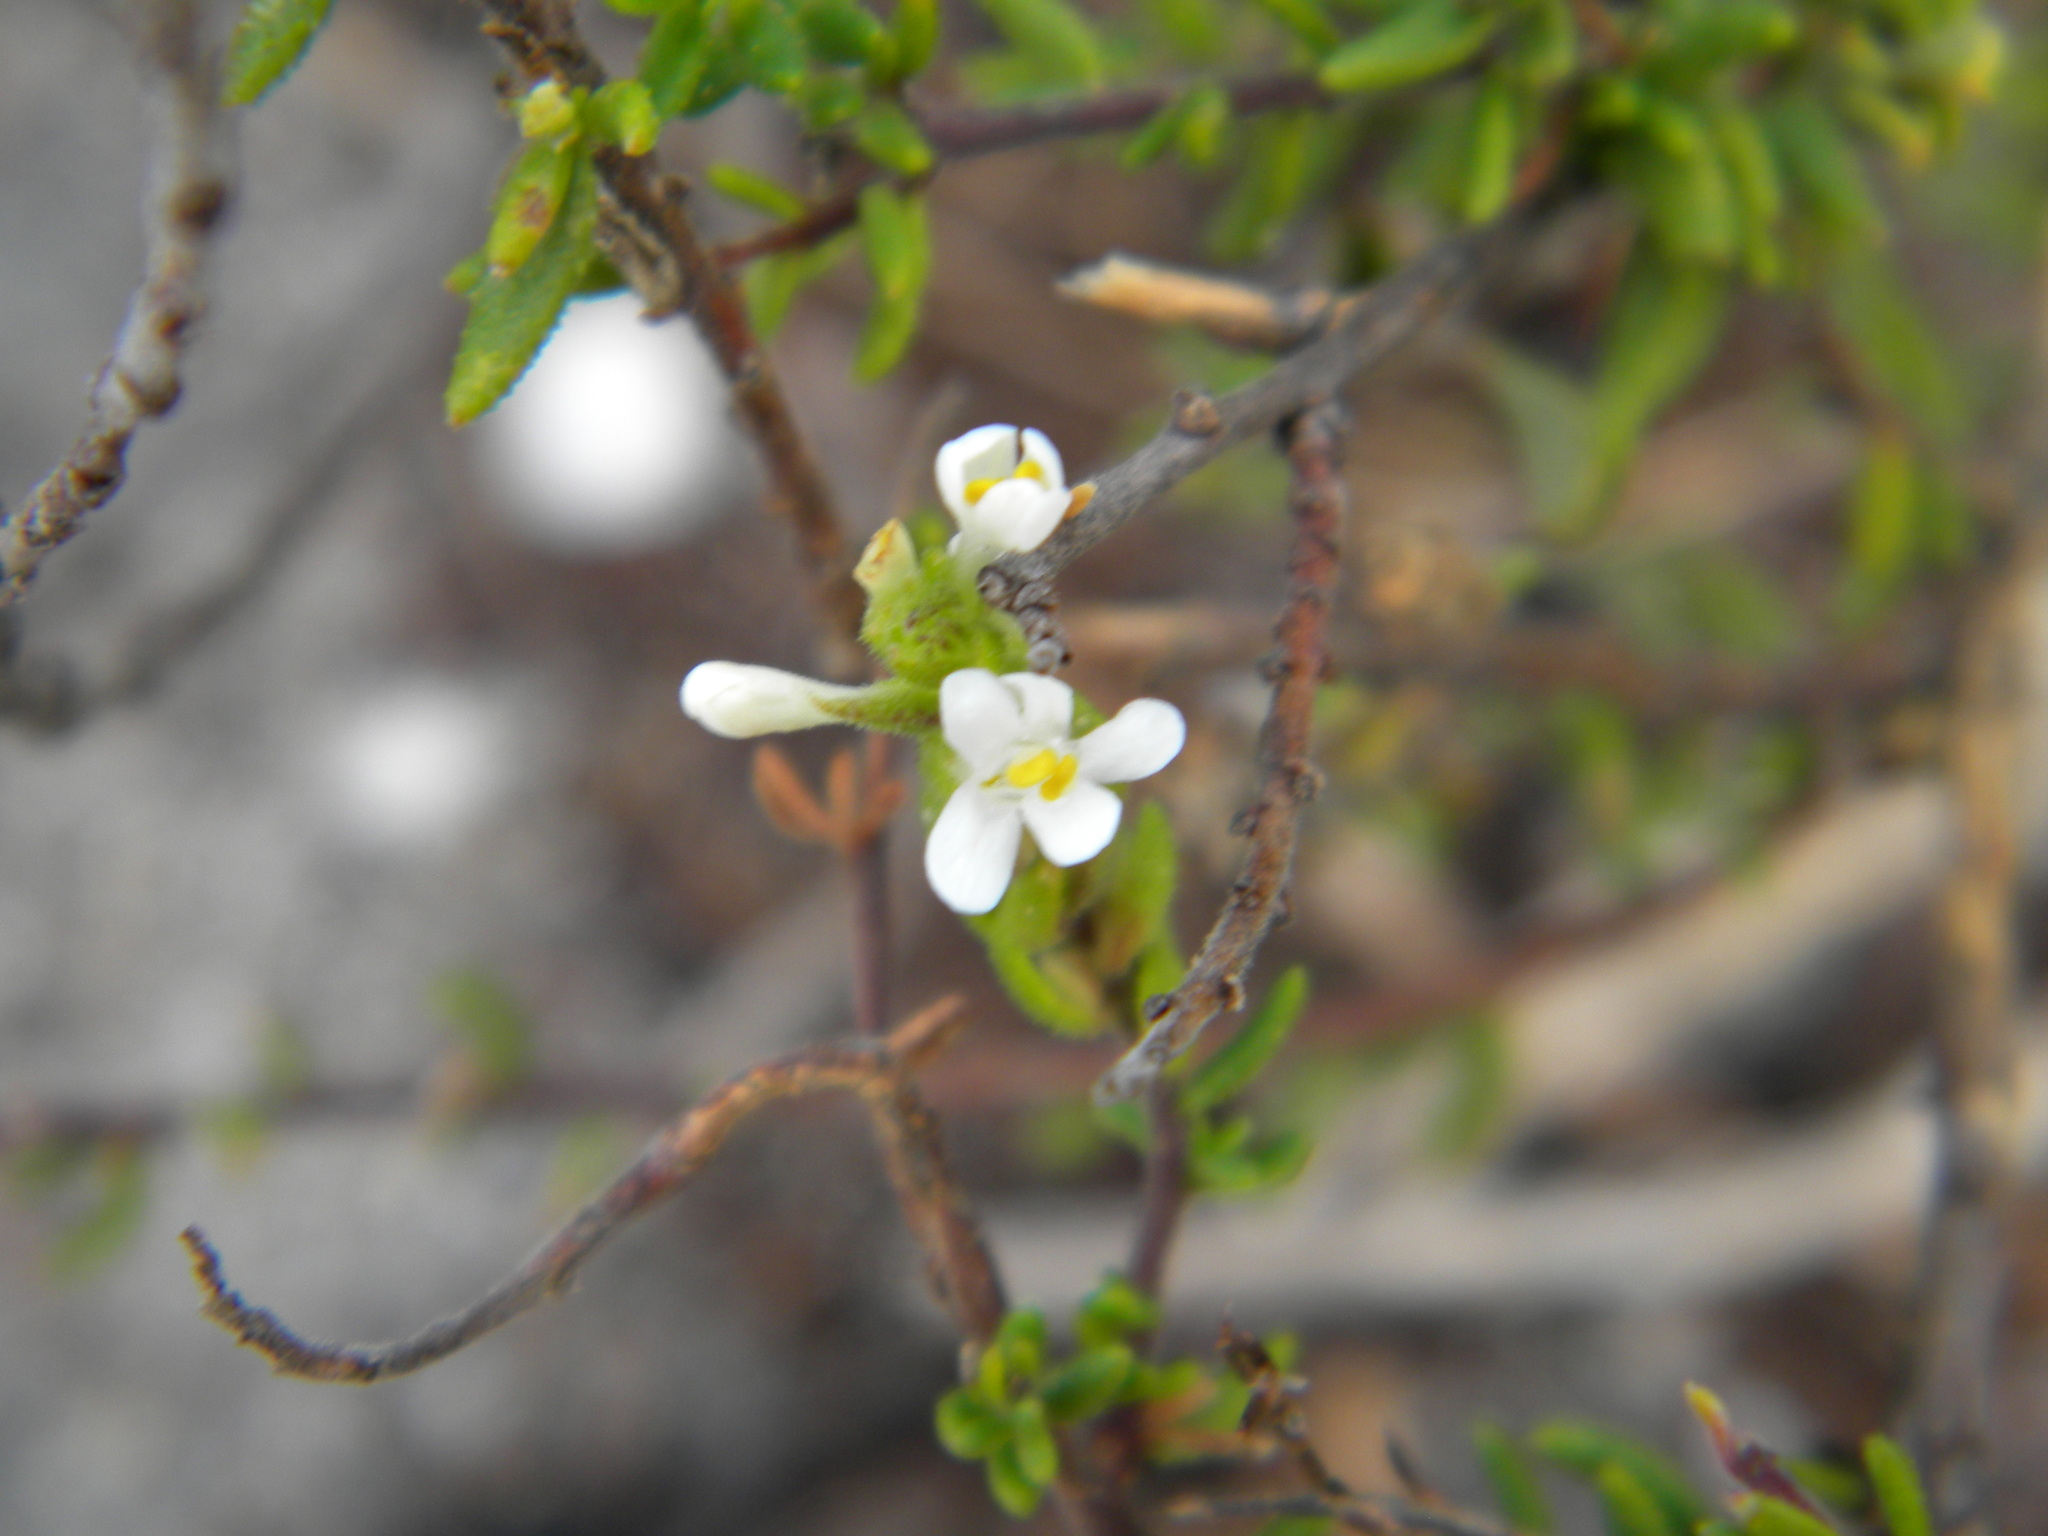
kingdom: Plantae
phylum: Tracheophyta
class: Magnoliopsida
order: Lamiales
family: Scrophulariaceae
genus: Selago
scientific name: Selago levynsiae
